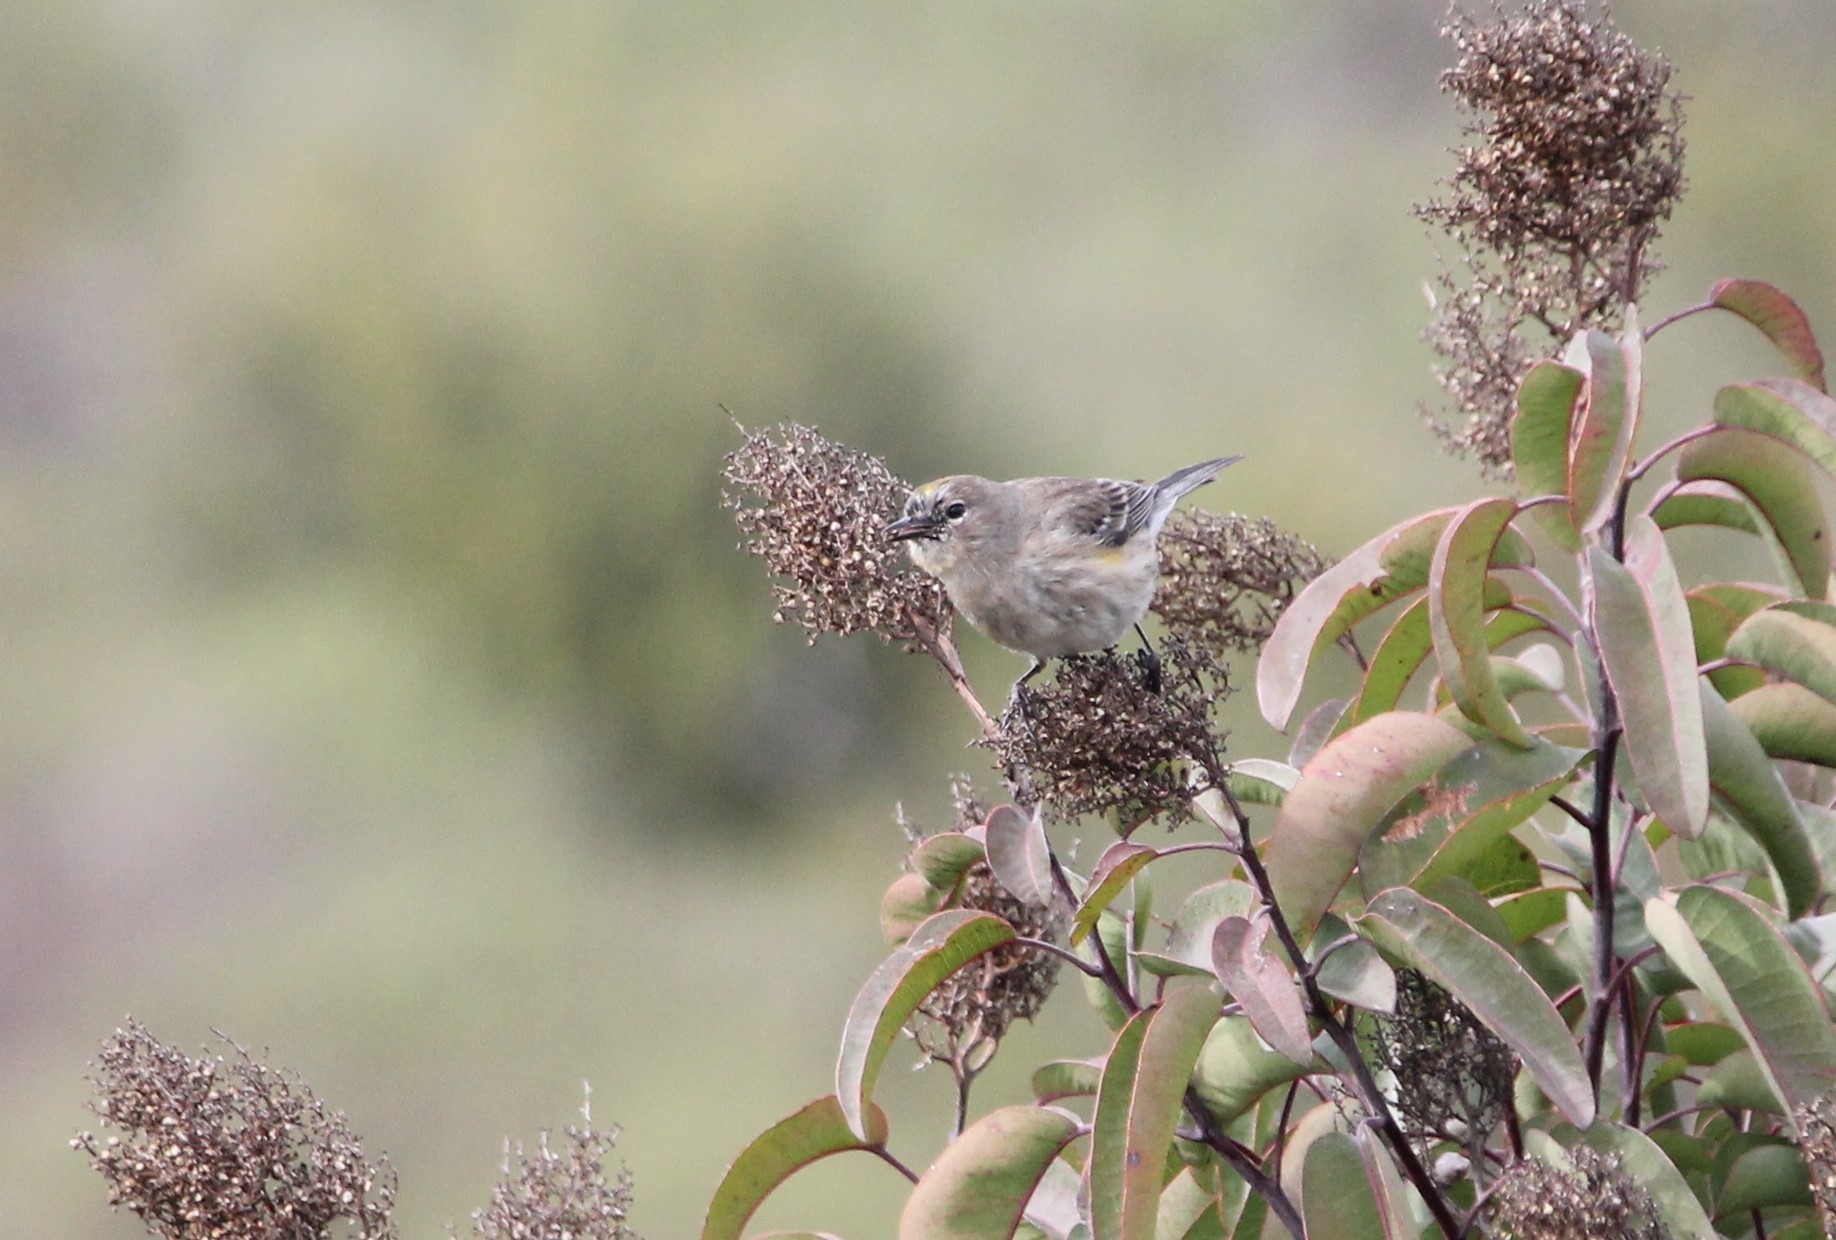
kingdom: Animalia
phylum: Chordata
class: Aves
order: Passeriformes
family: Parulidae
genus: Setophaga
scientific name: Setophaga coronata
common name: Myrtle warbler
